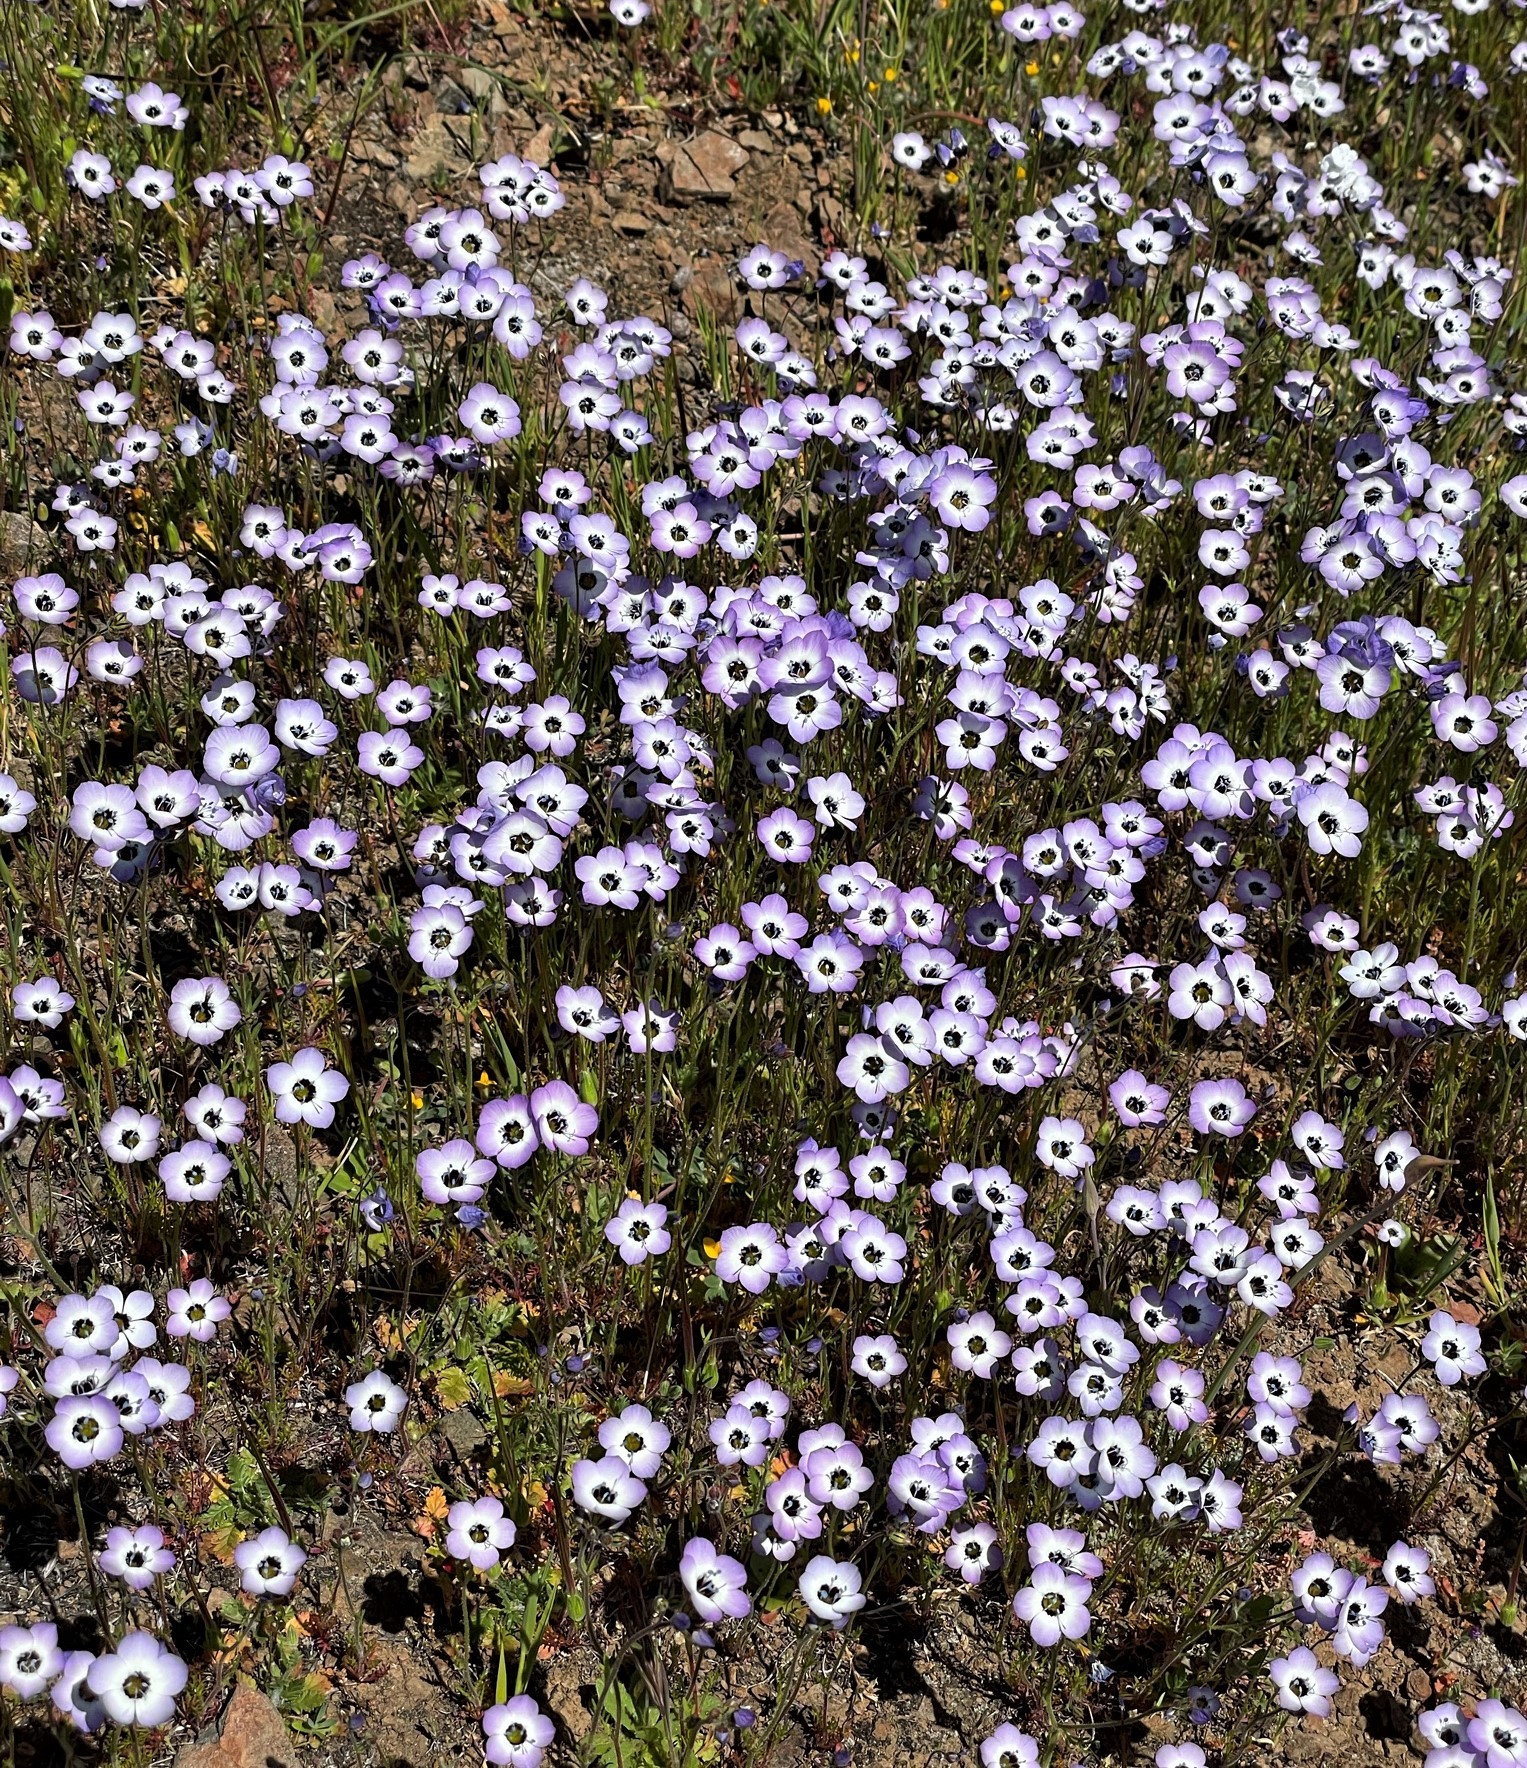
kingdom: Plantae
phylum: Tracheophyta
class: Magnoliopsida
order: Ericales
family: Polemoniaceae
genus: Gilia
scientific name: Gilia tricolor
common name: Bird's-eyes
